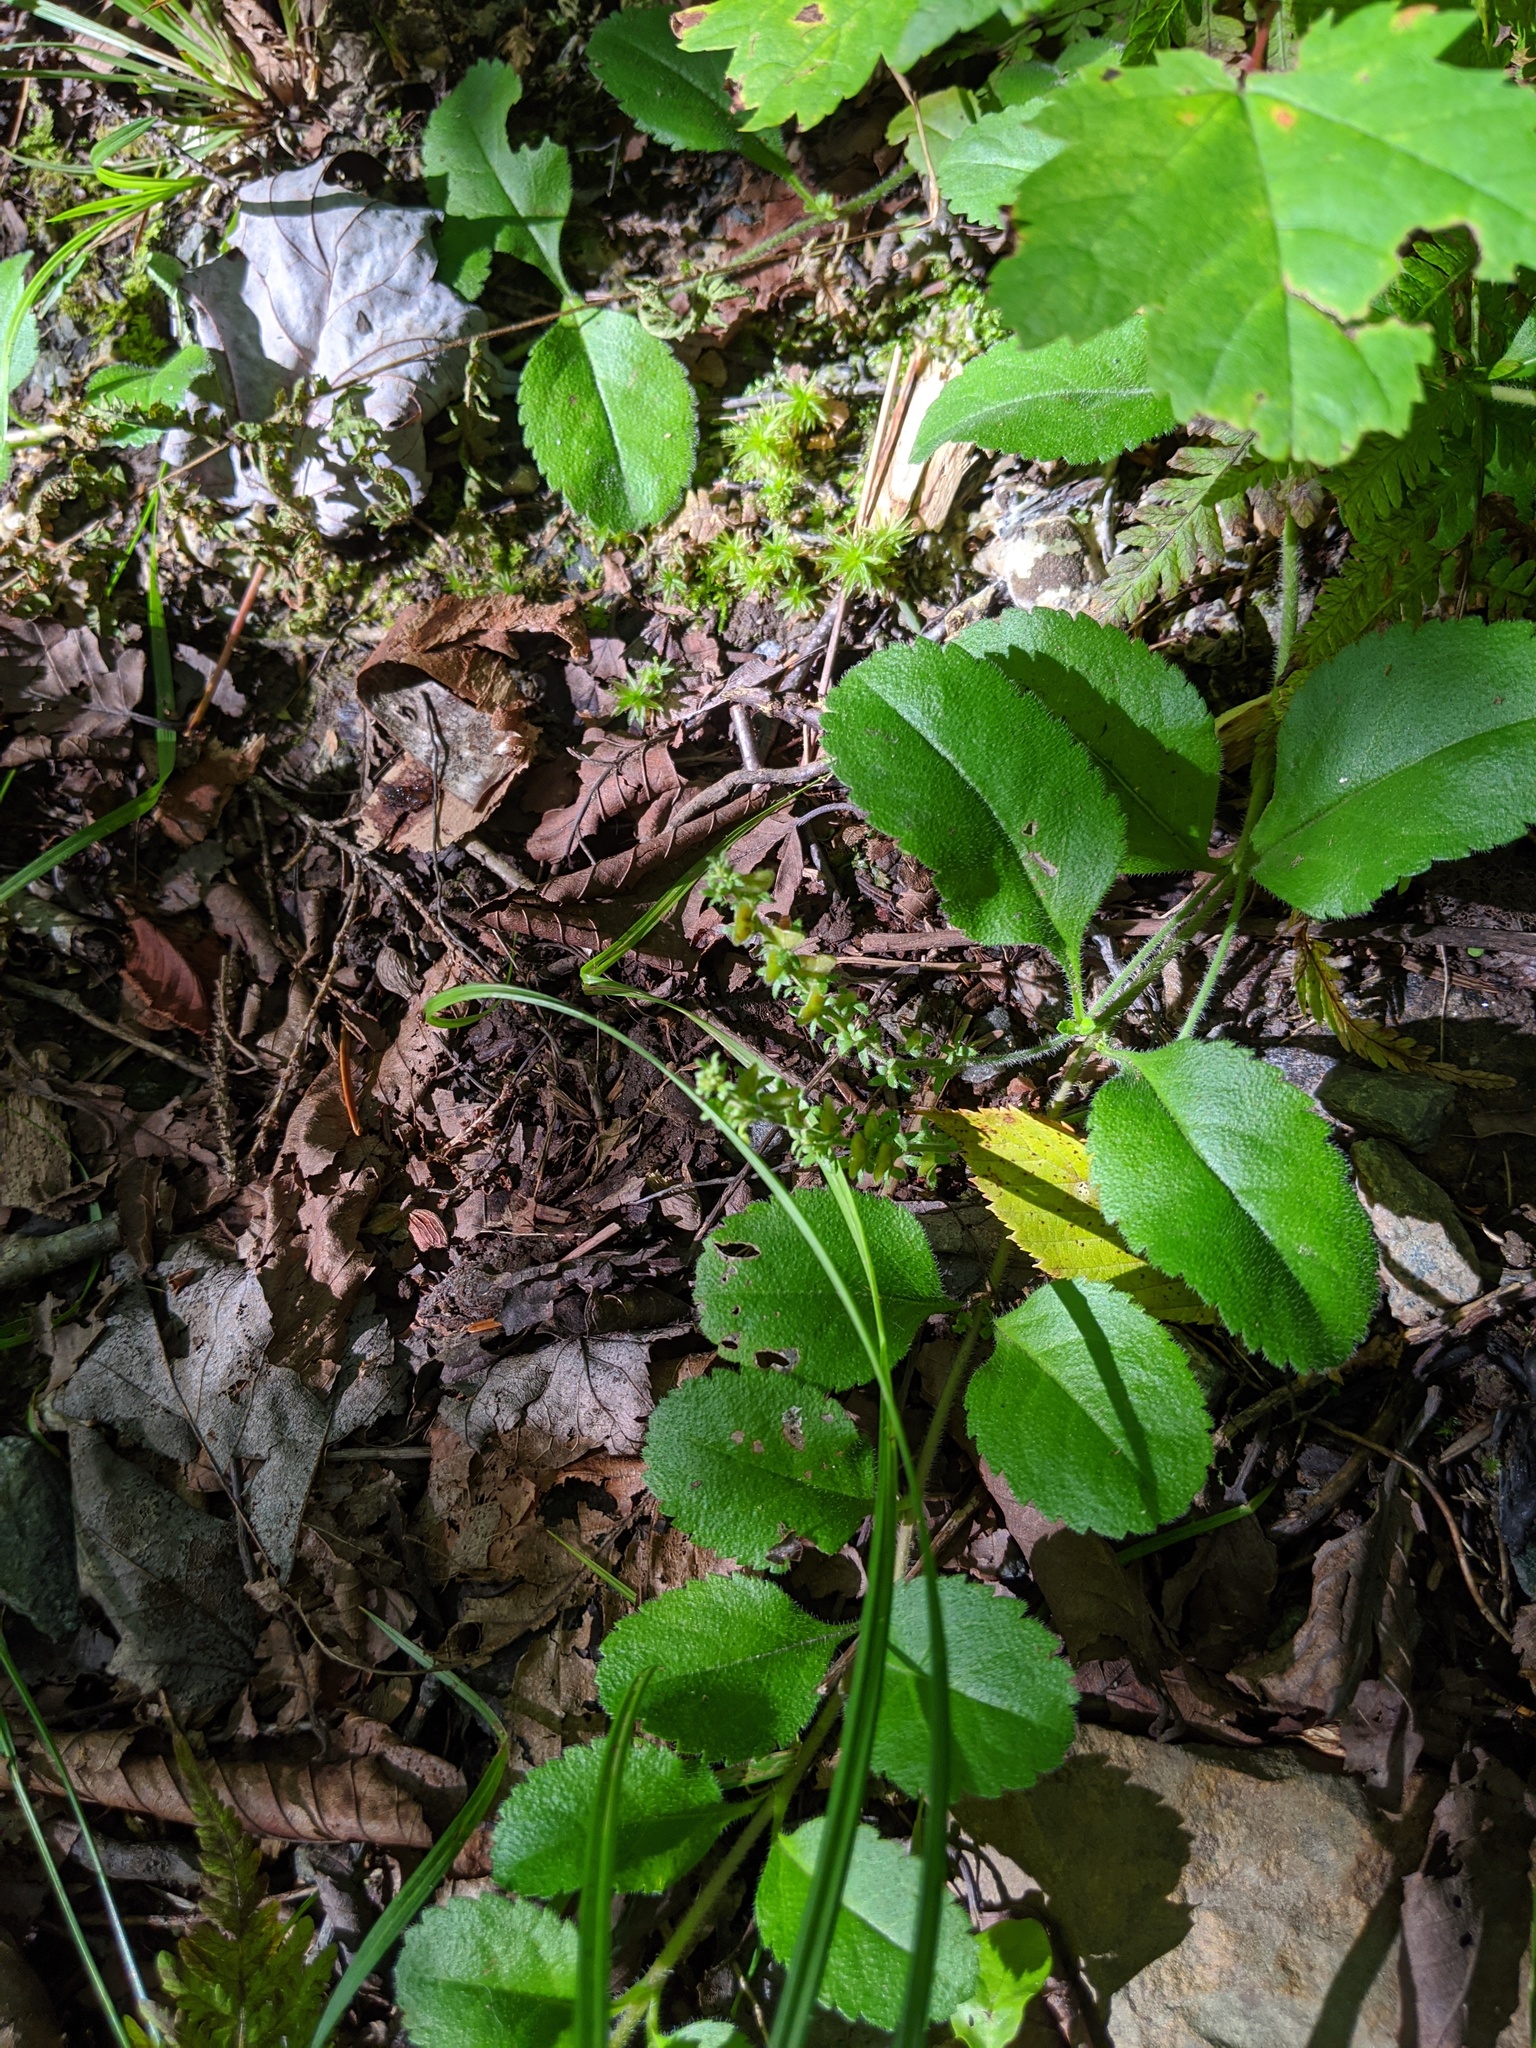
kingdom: Plantae
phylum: Tracheophyta
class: Magnoliopsida
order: Lamiales
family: Plantaginaceae
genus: Veronica
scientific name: Veronica officinalis
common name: Common speedwell
